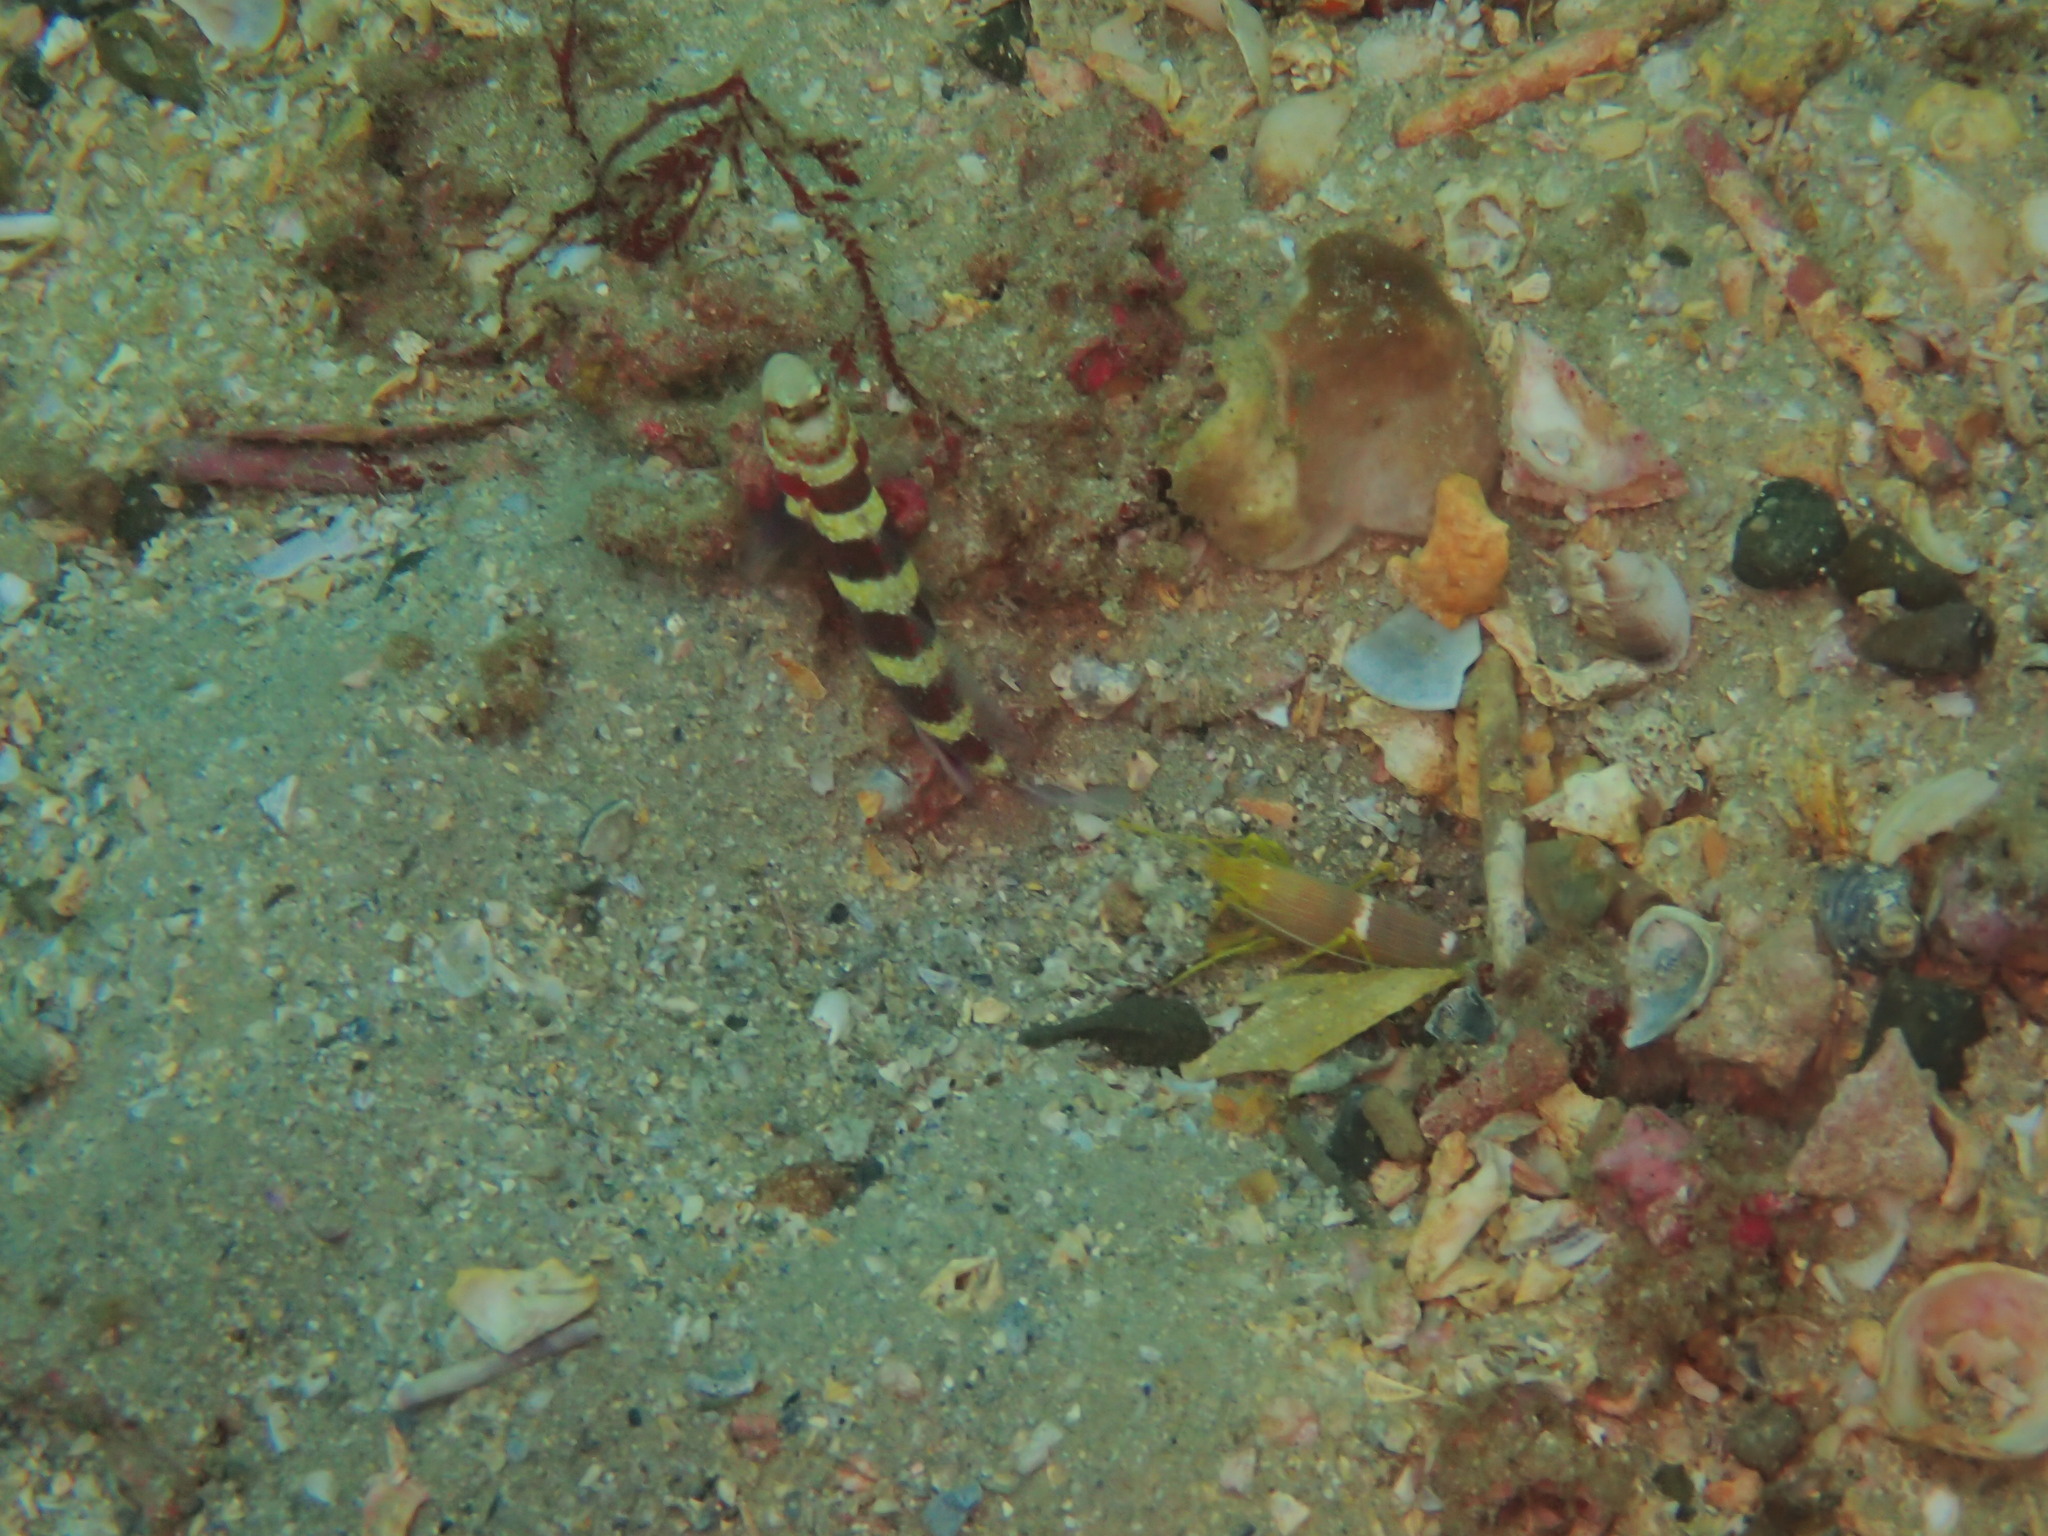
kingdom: Animalia
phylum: Arthropoda
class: Malacostraca
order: Decapoda
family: Alpheidae
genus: Alpheus
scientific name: Alpheus
